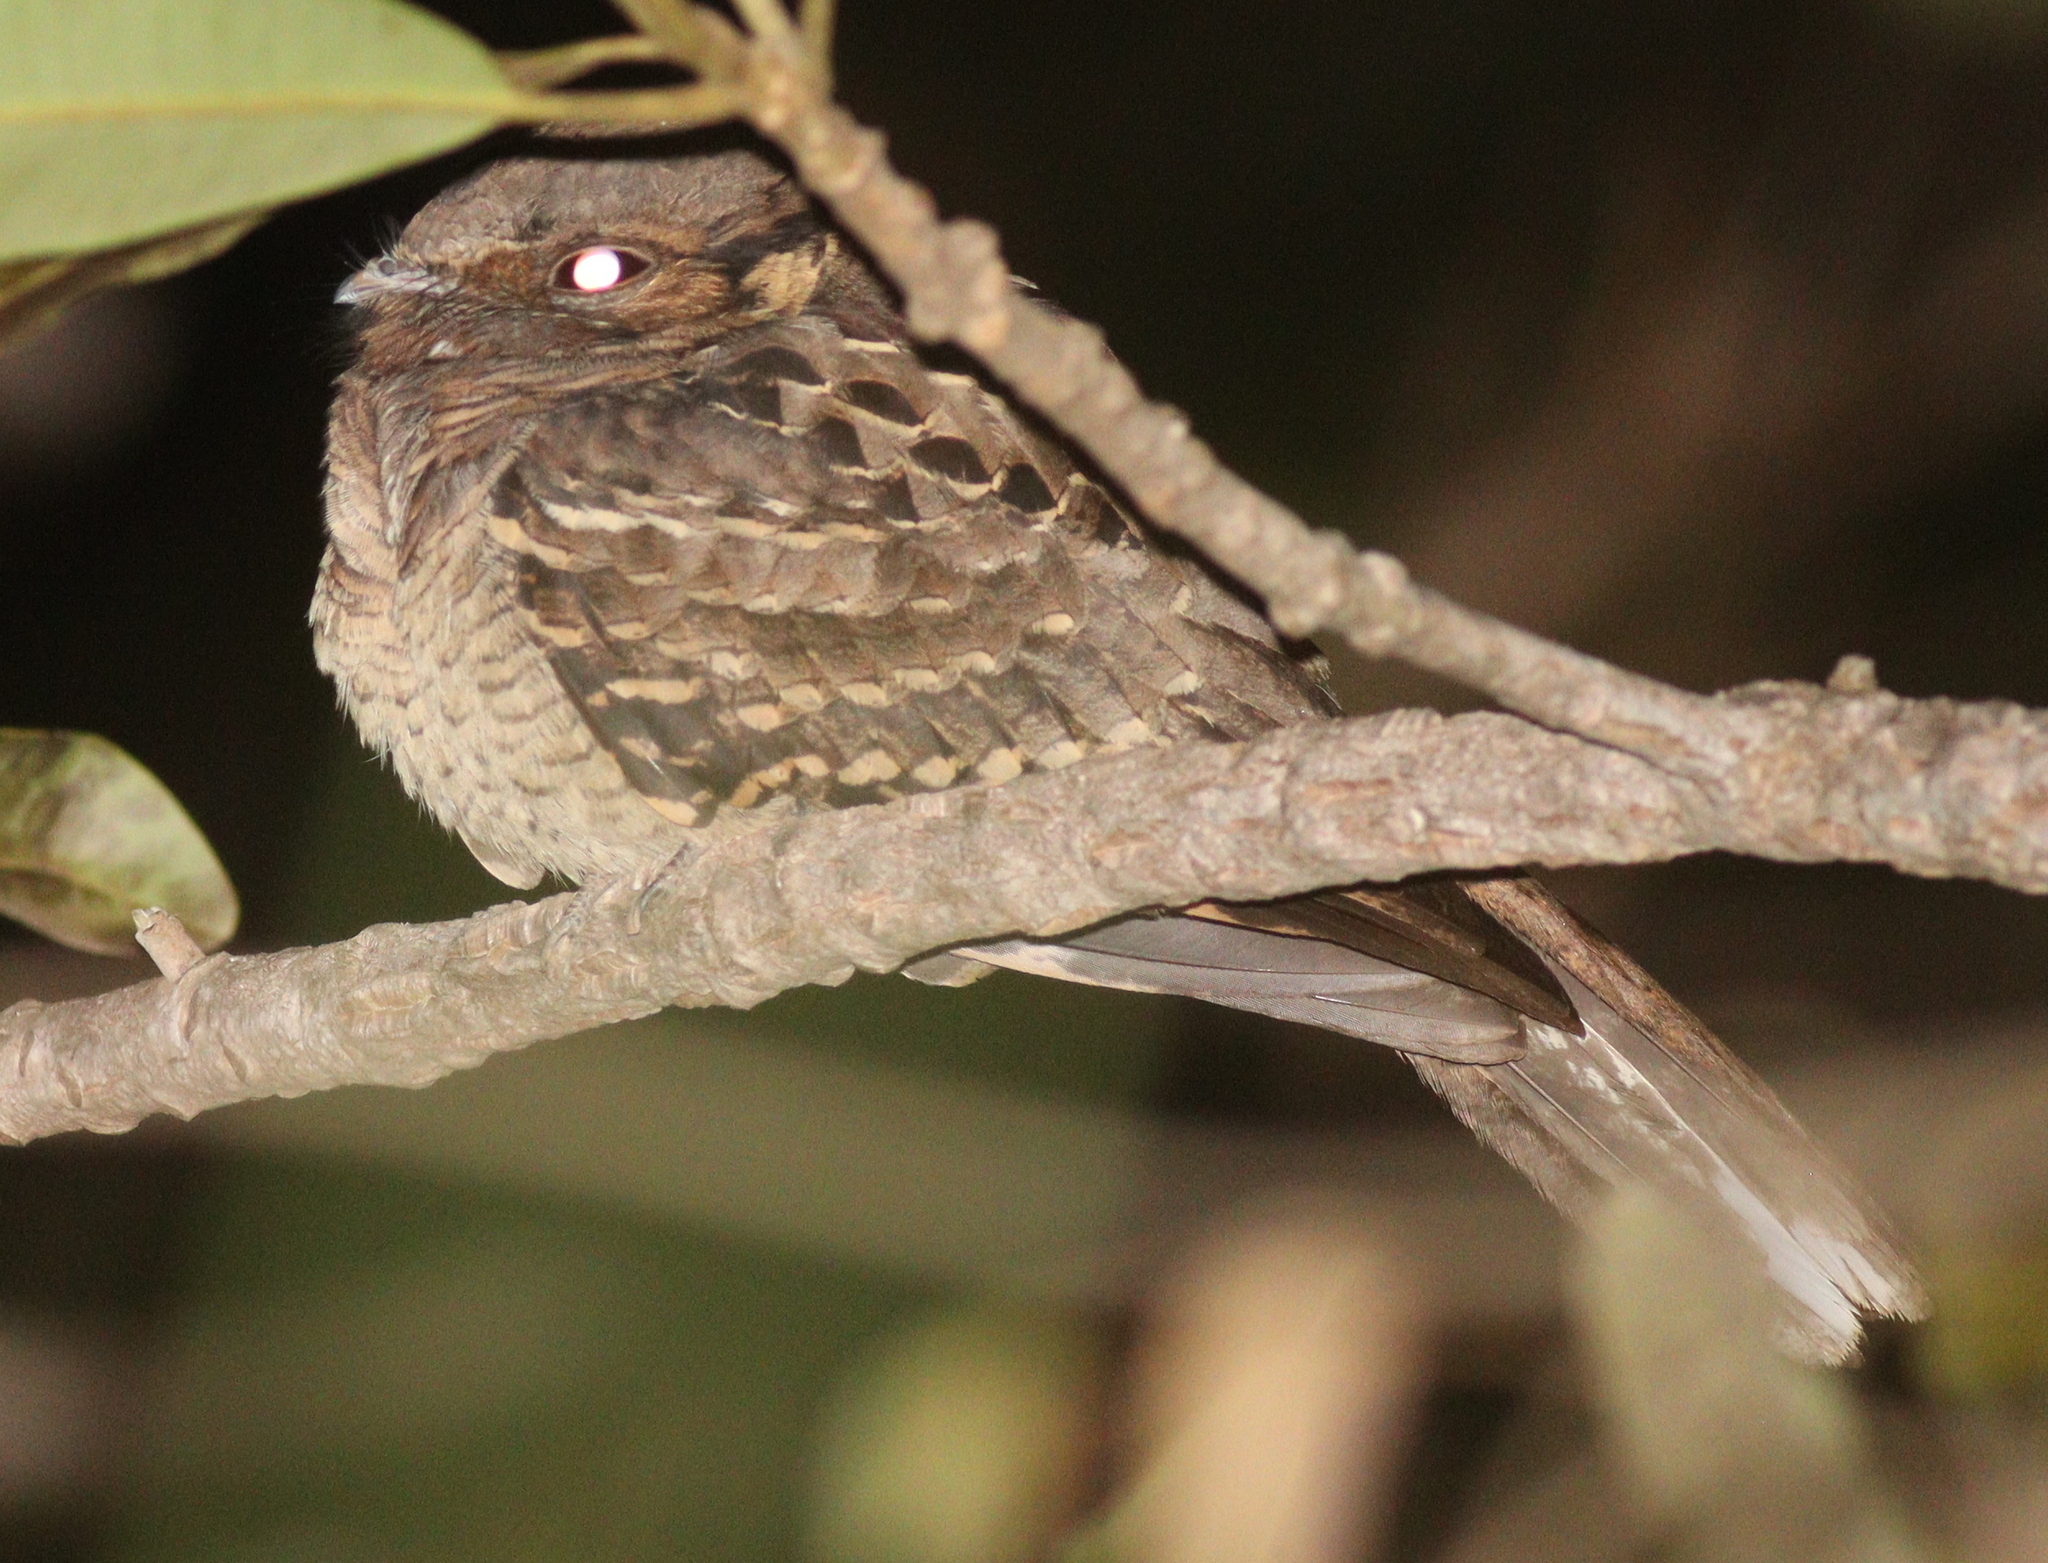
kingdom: Animalia
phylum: Chordata
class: Aves
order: Caprimulgiformes
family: Caprimulgidae
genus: Nyctidromus
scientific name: Nyctidromus albicollis
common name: Pauraque
